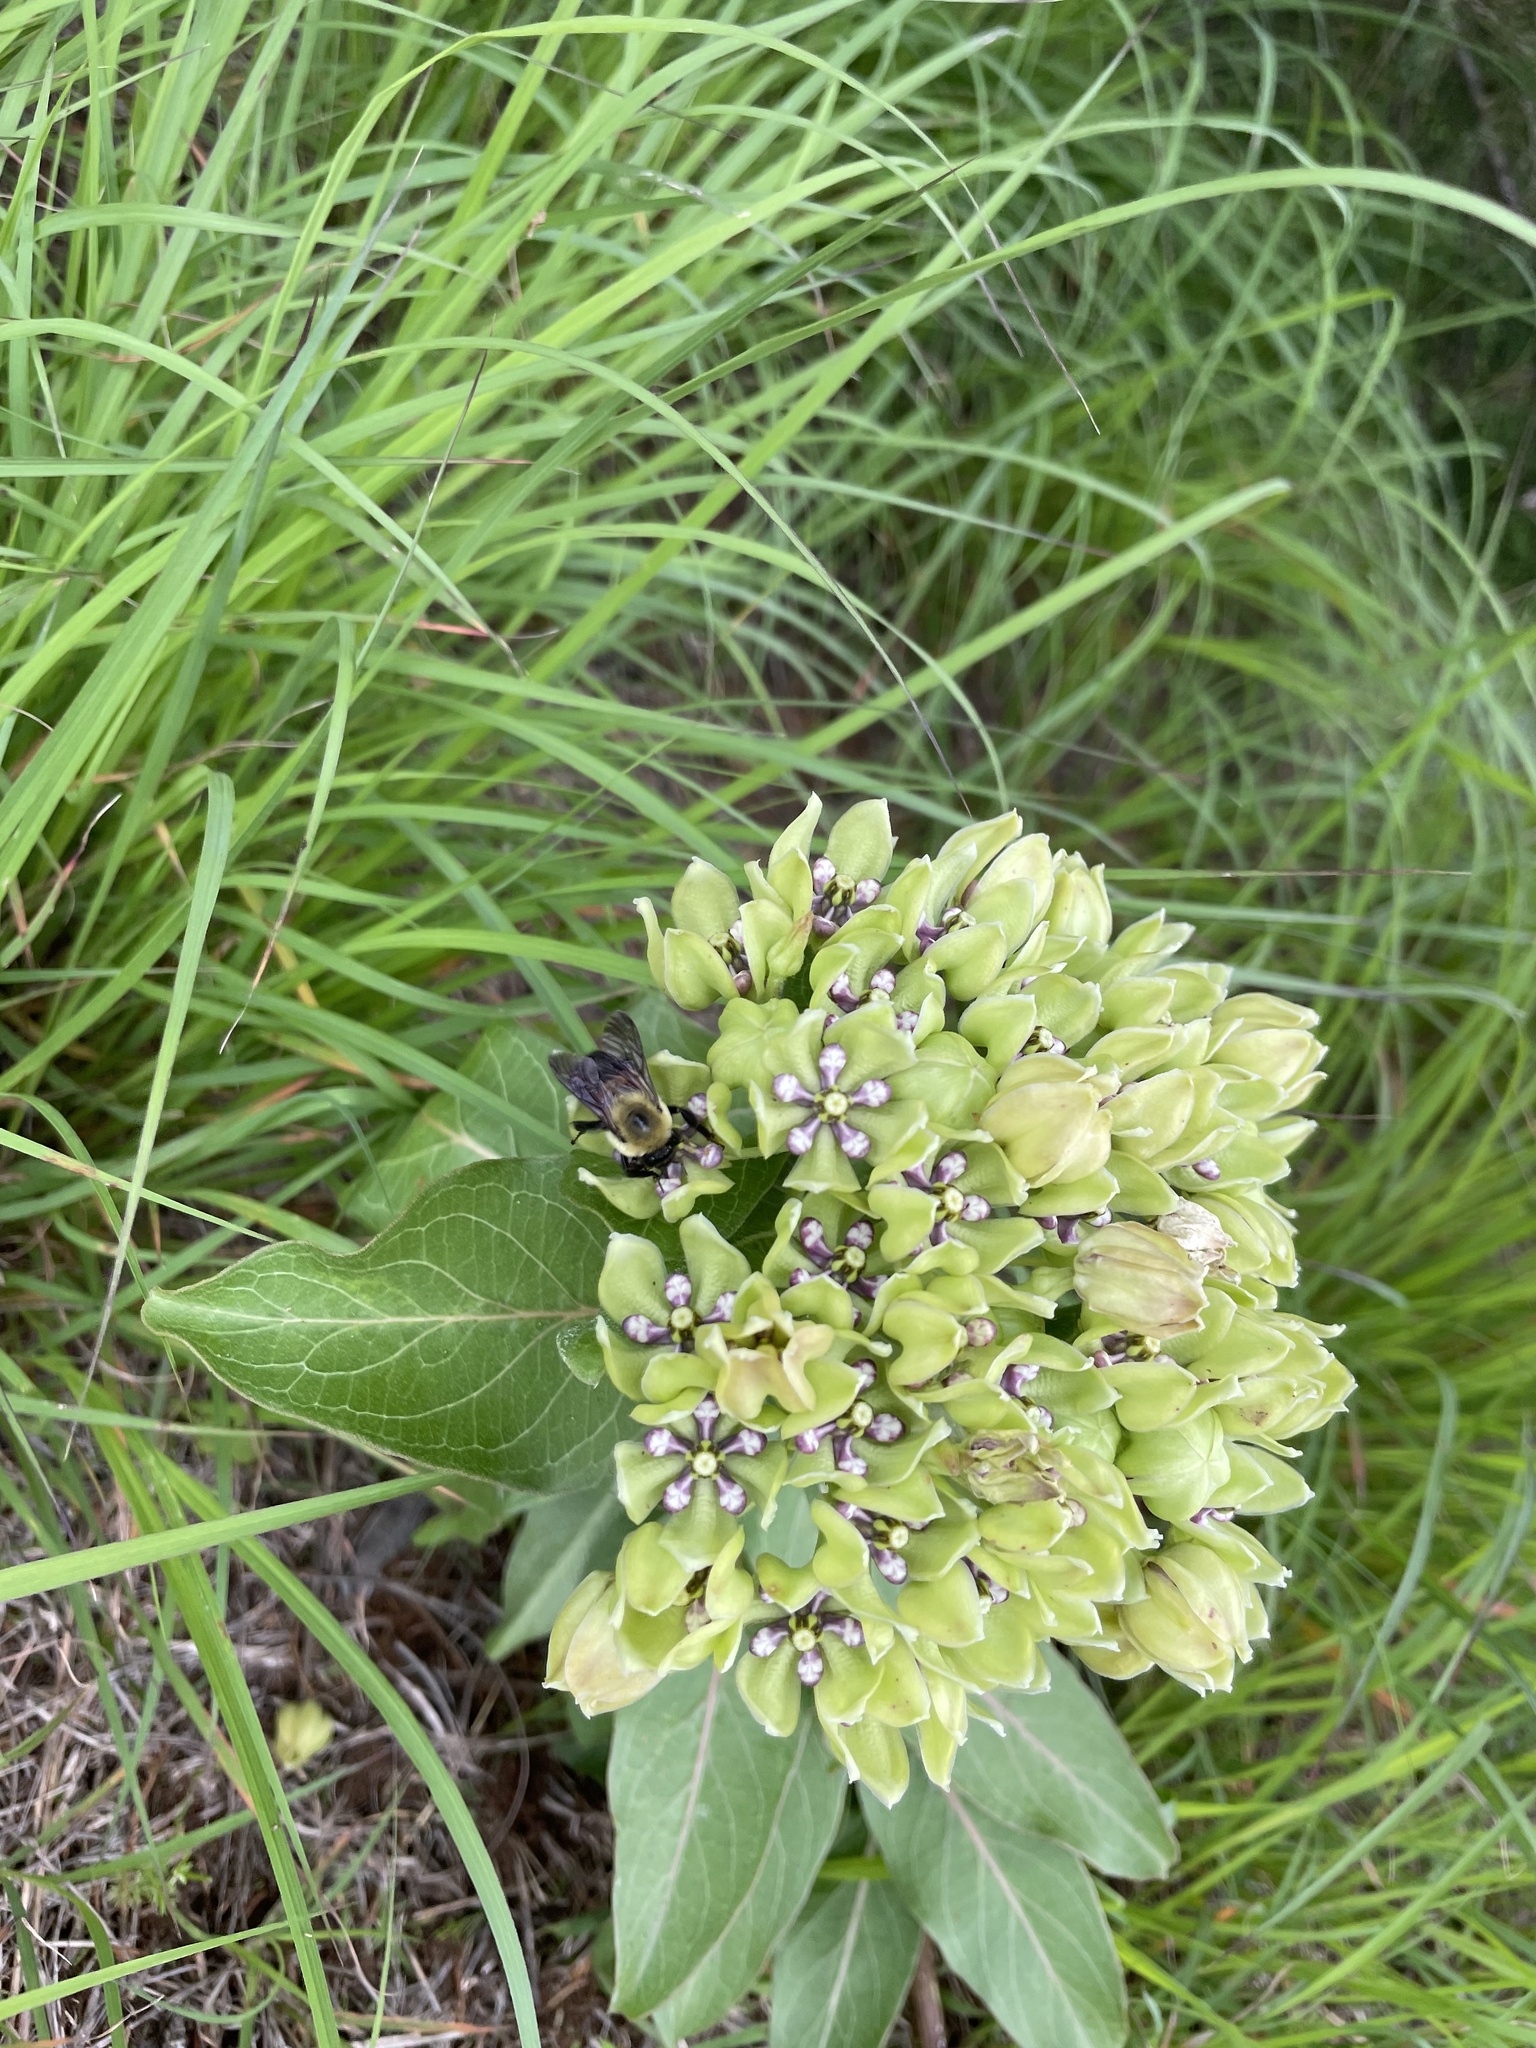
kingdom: Animalia
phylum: Arthropoda
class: Insecta
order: Hymenoptera
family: Apidae
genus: Bombus
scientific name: Bombus griseocollis
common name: Brown-belted bumble bee
